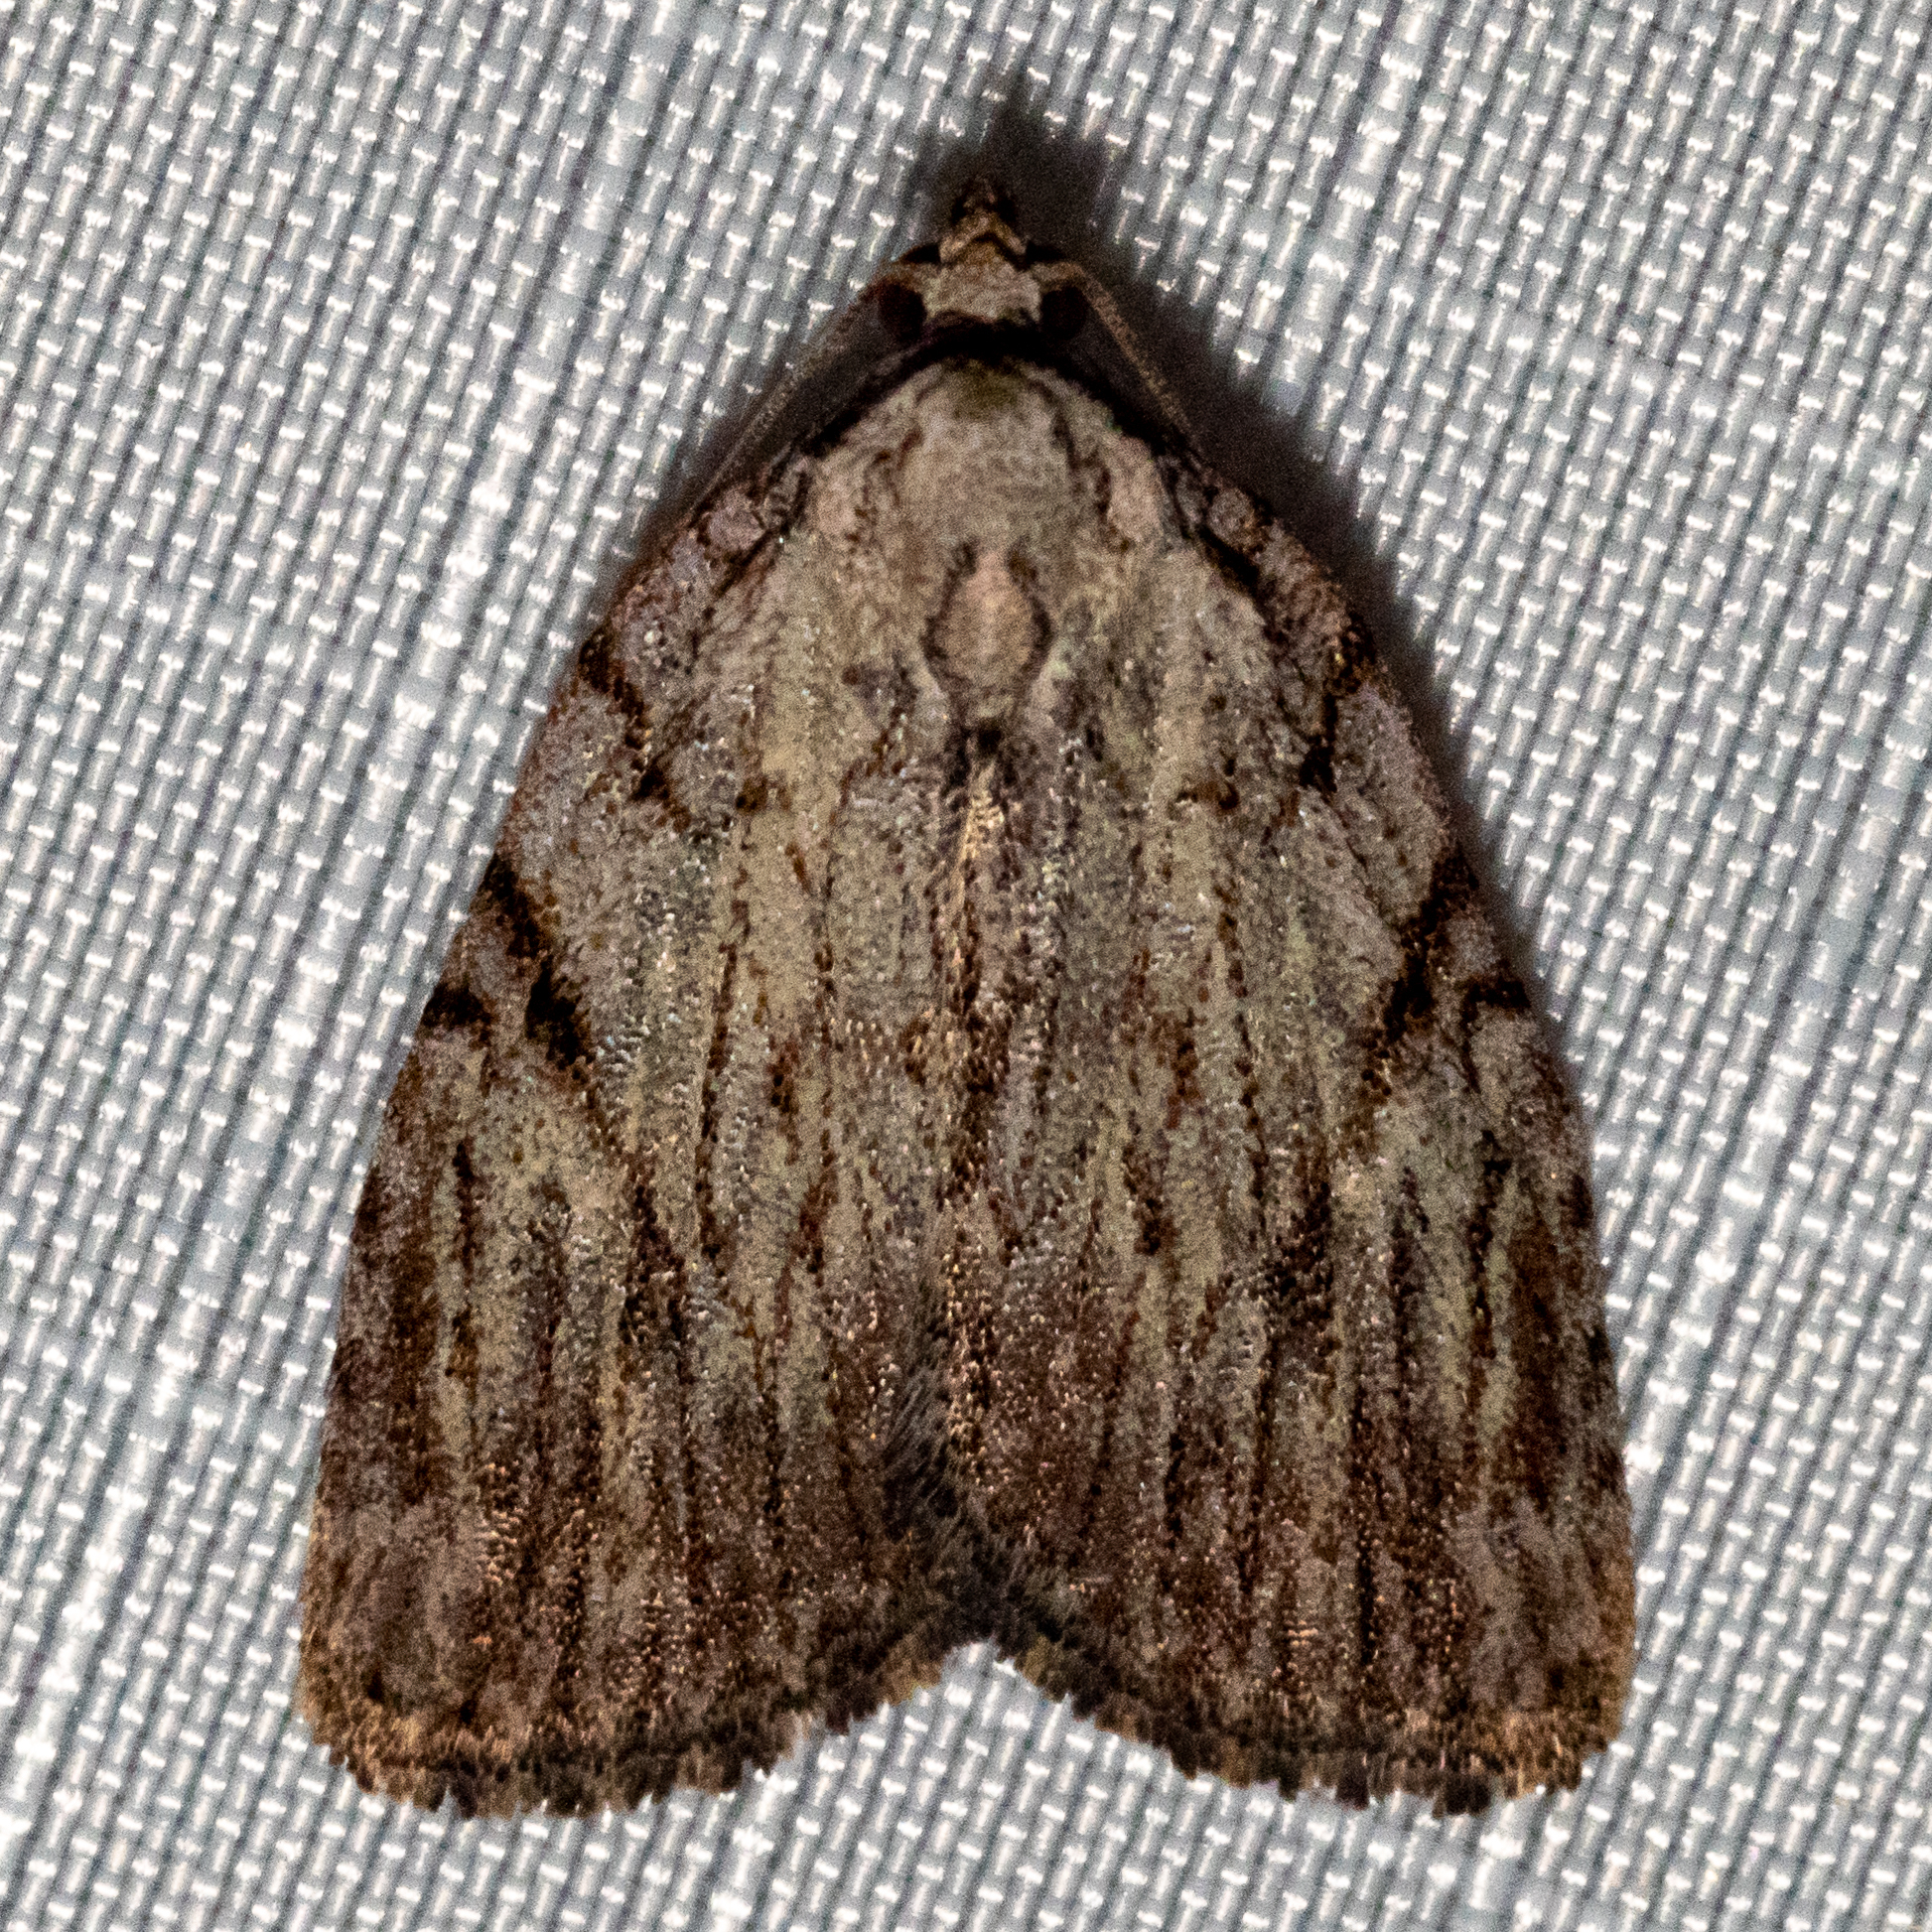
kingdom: Animalia
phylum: Arthropoda
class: Insecta
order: Lepidoptera
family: Noctuidae
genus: Balsa
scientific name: Balsa tristrigella
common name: Three-lined balsa moth
